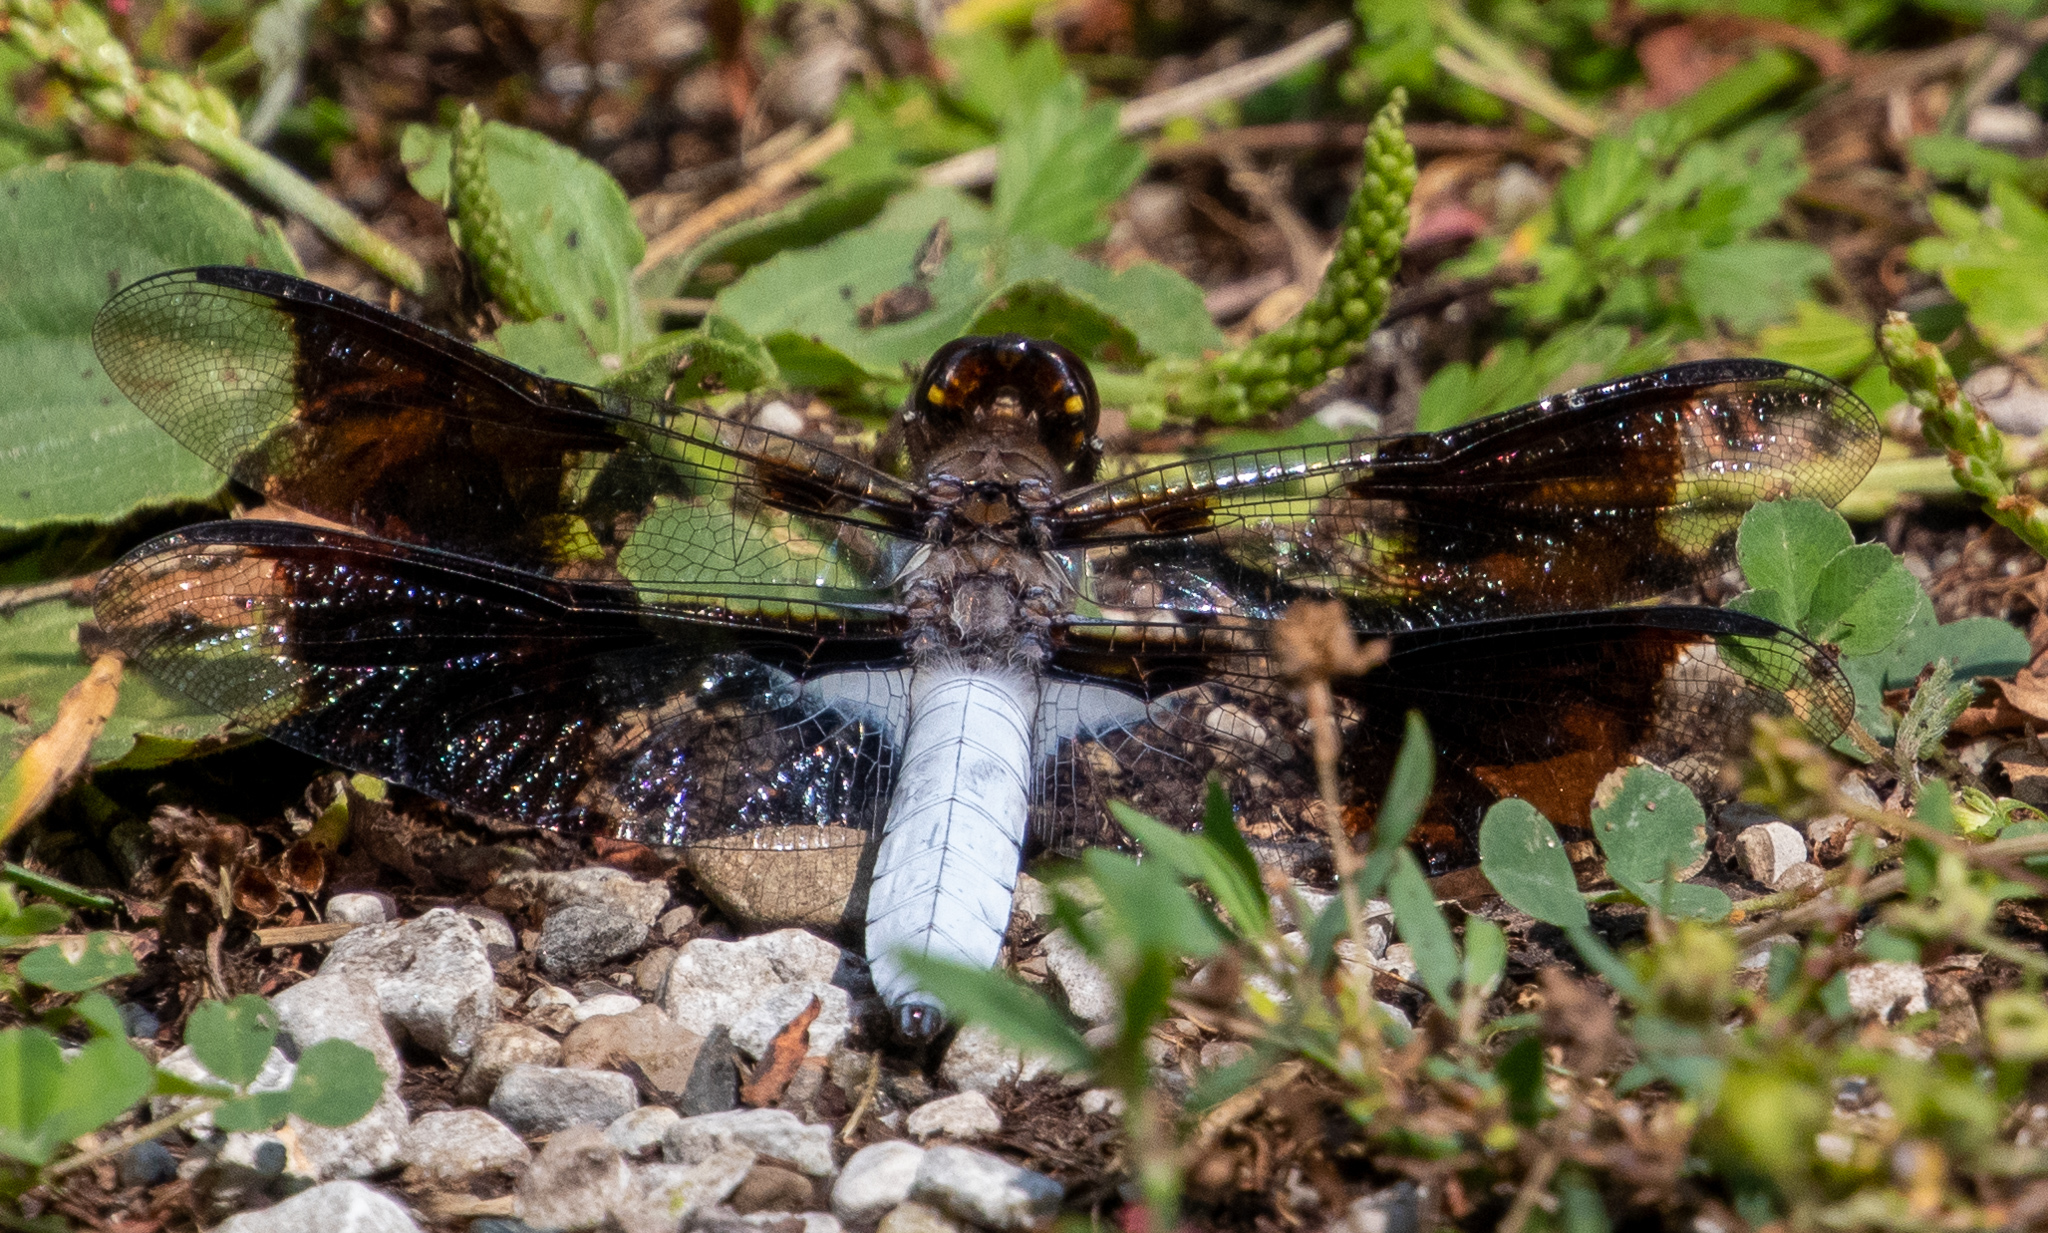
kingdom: Animalia
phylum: Arthropoda
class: Insecta
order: Odonata
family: Libellulidae
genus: Plathemis
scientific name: Plathemis lydia
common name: Common whitetail
